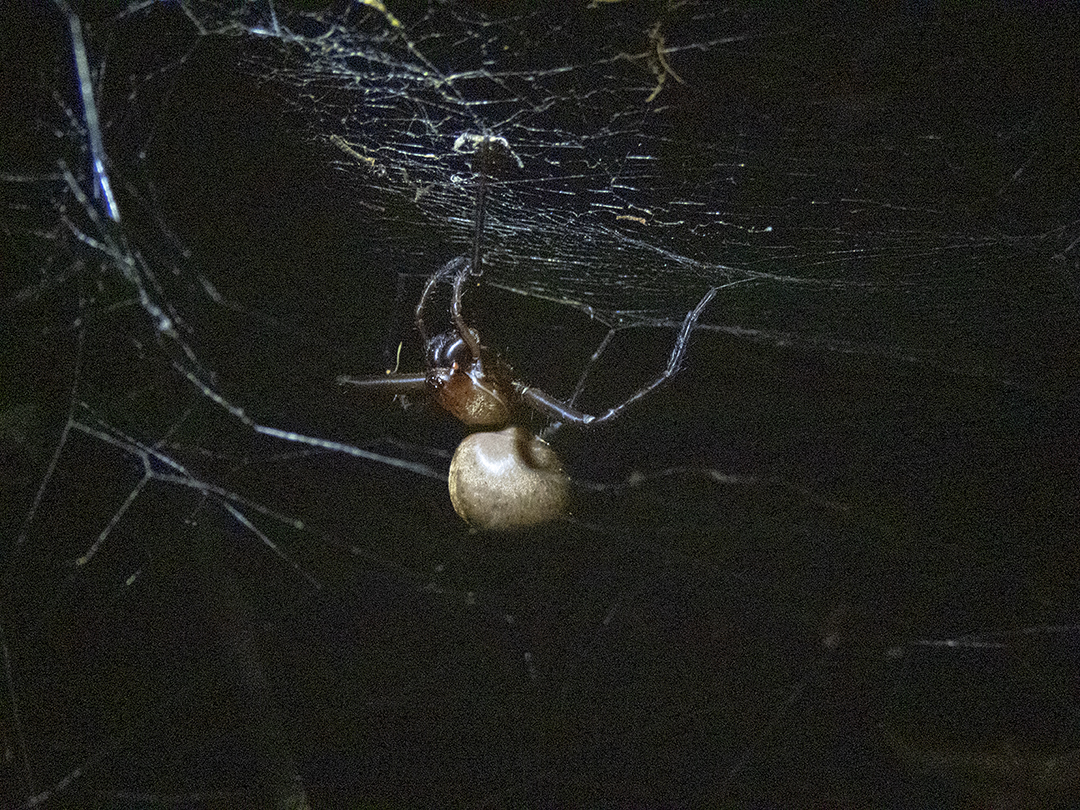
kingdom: Animalia
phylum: Arthropoda
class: Arachnida
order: Araneae
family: Desidae
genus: Cambridgea
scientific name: Cambridgea foliata
